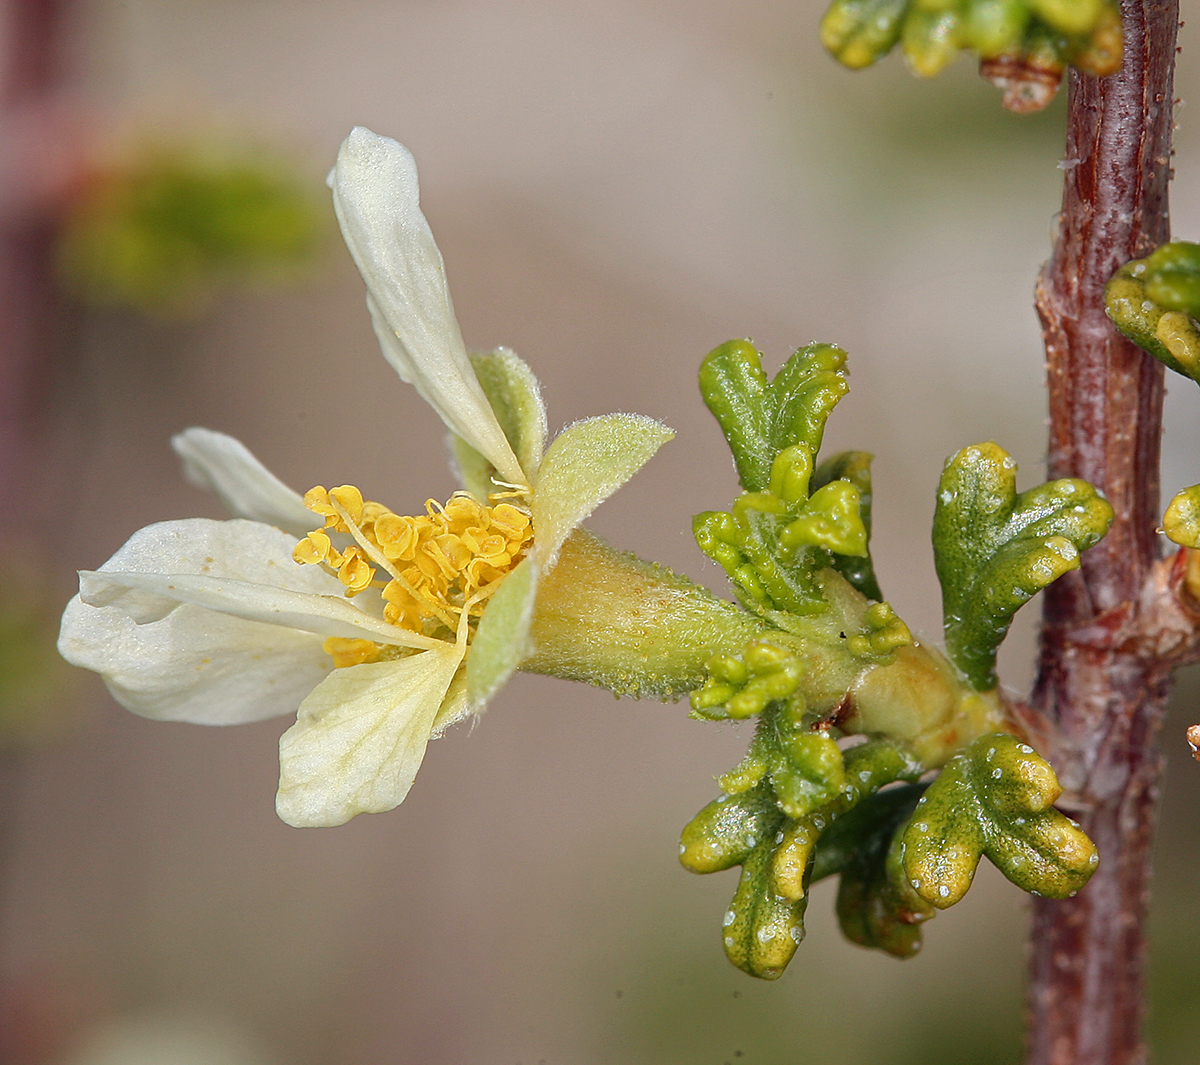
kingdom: Plantae
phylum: Tracheophyta
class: Magnoliopsida
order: Rosales
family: Rosaceae
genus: Purshia
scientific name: Purshia glandulosa
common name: Desert bitterbrush
